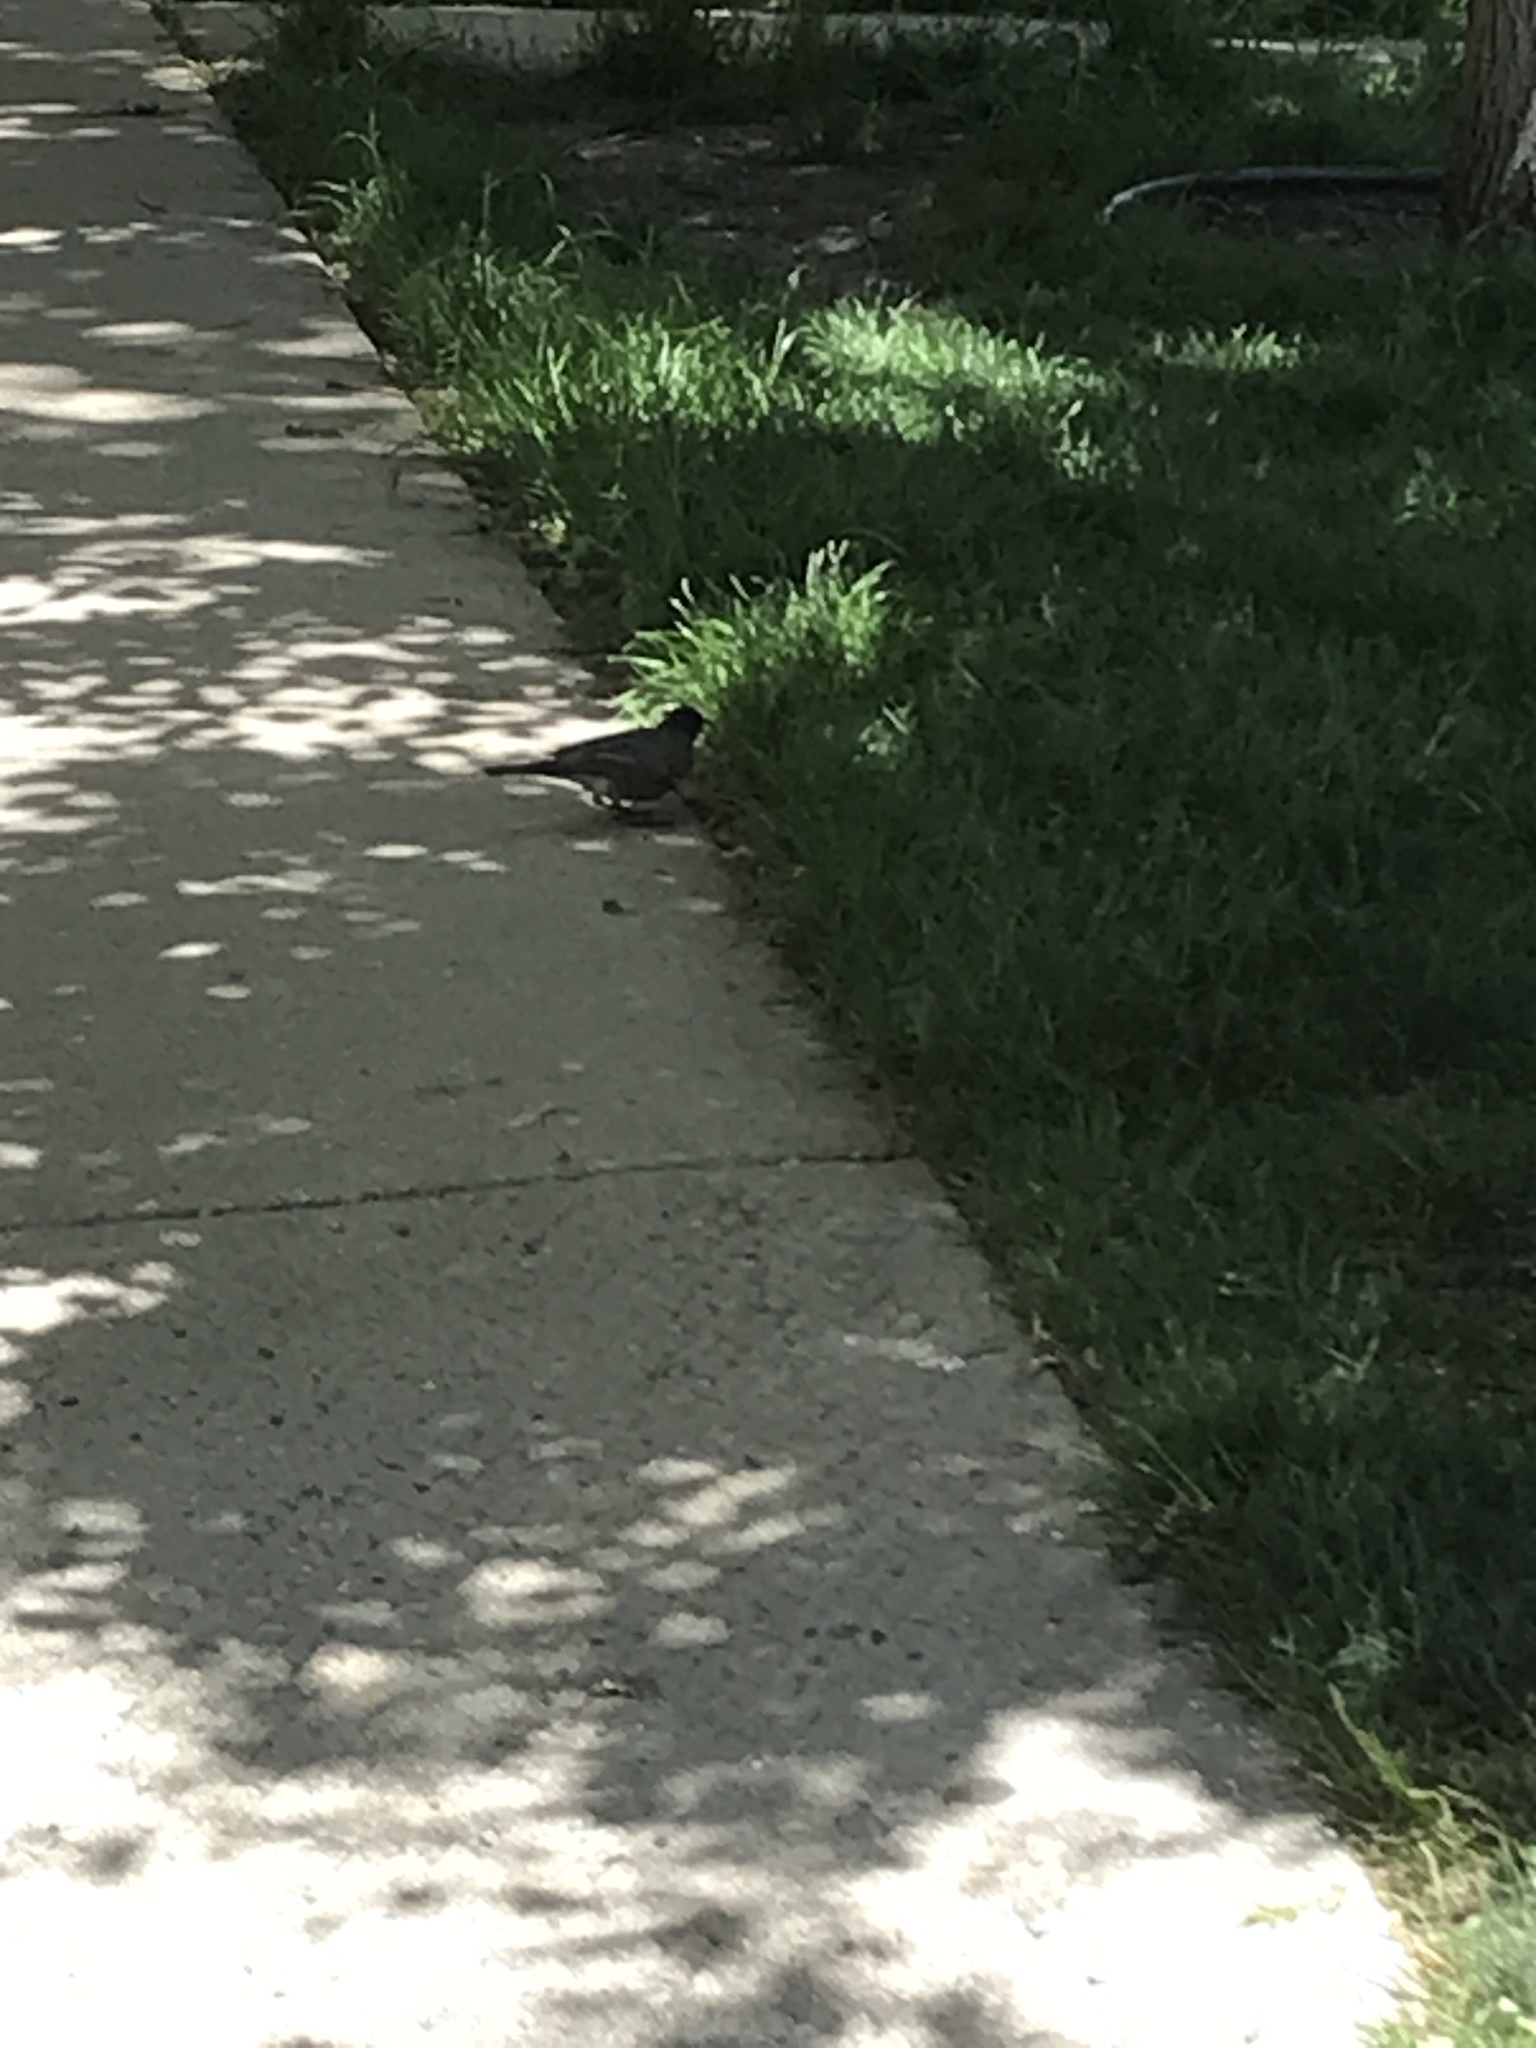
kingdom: Animalia
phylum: Chordata
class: Aves
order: Passeriformes
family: Turdidae
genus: Turdus
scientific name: Turdus migratorius
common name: American robin
